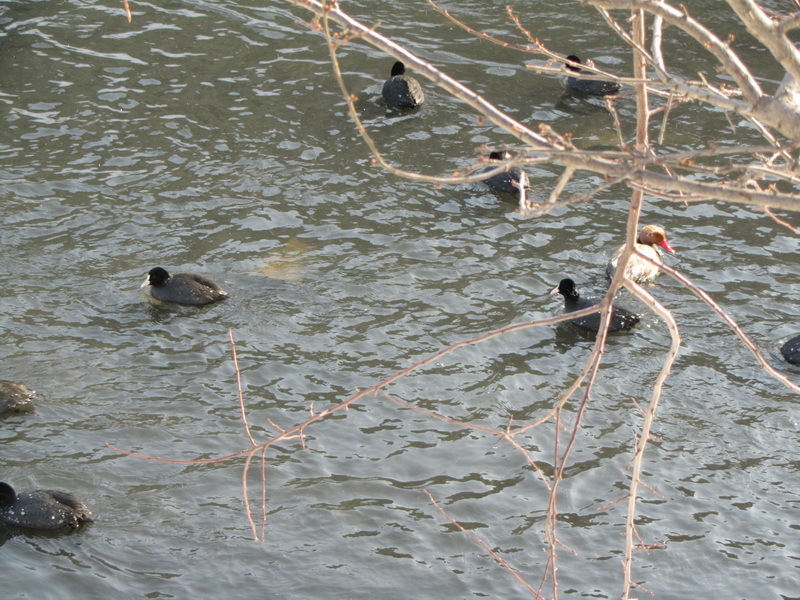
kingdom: Animalia
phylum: Chordata
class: Aves
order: Anseriformes
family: Anatidae
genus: Netta
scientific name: Netta rufina
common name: Red-crested pochard
